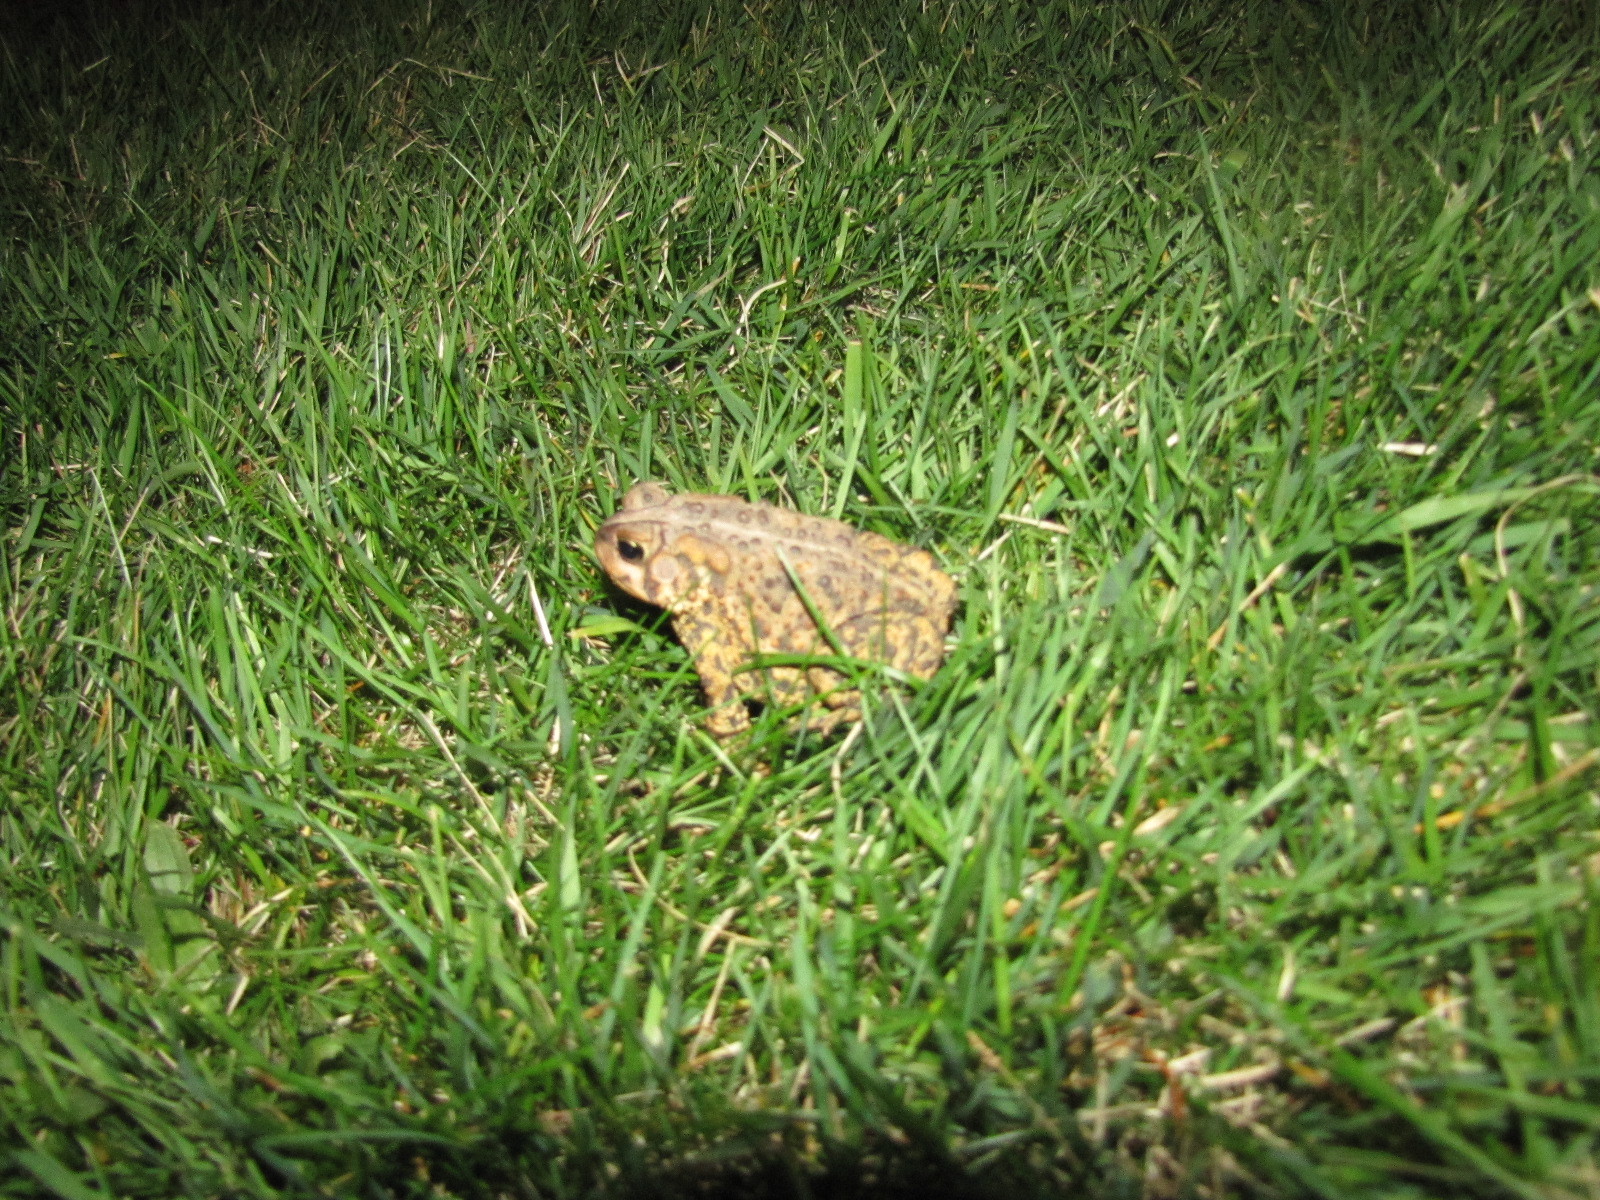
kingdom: Animalia
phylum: Chordata
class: Amphibia
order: Anura
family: Bufonidae
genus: Anaxyrus
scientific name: Anaxyrus americanus
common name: American toad
